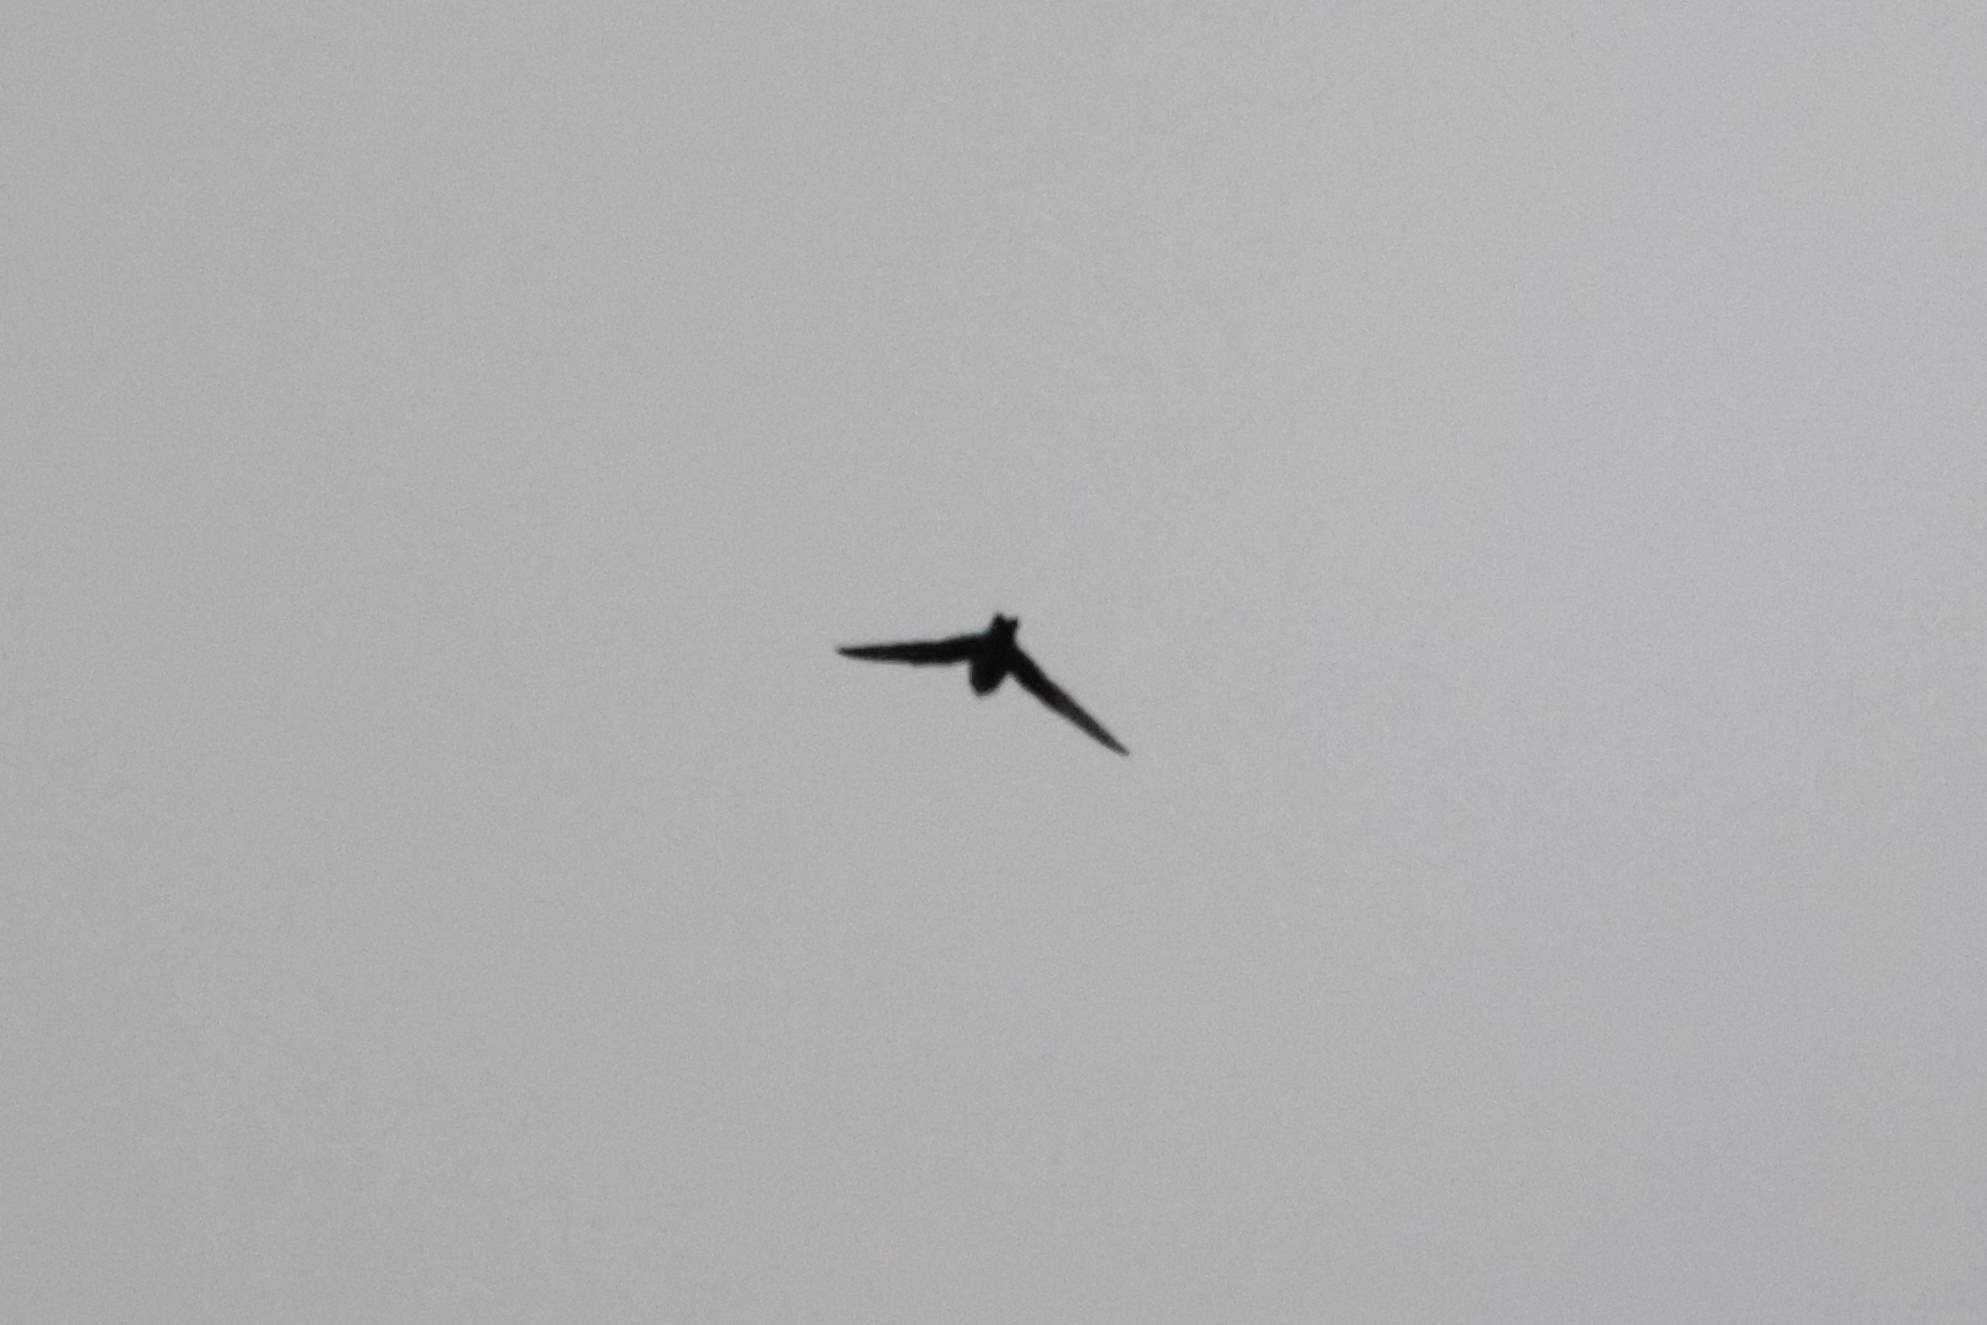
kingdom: Animalia
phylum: Chordata
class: Aves
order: Apodiformes
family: Apodidae
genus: Cypseloides
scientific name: Cypseloides niger
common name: Black swift
